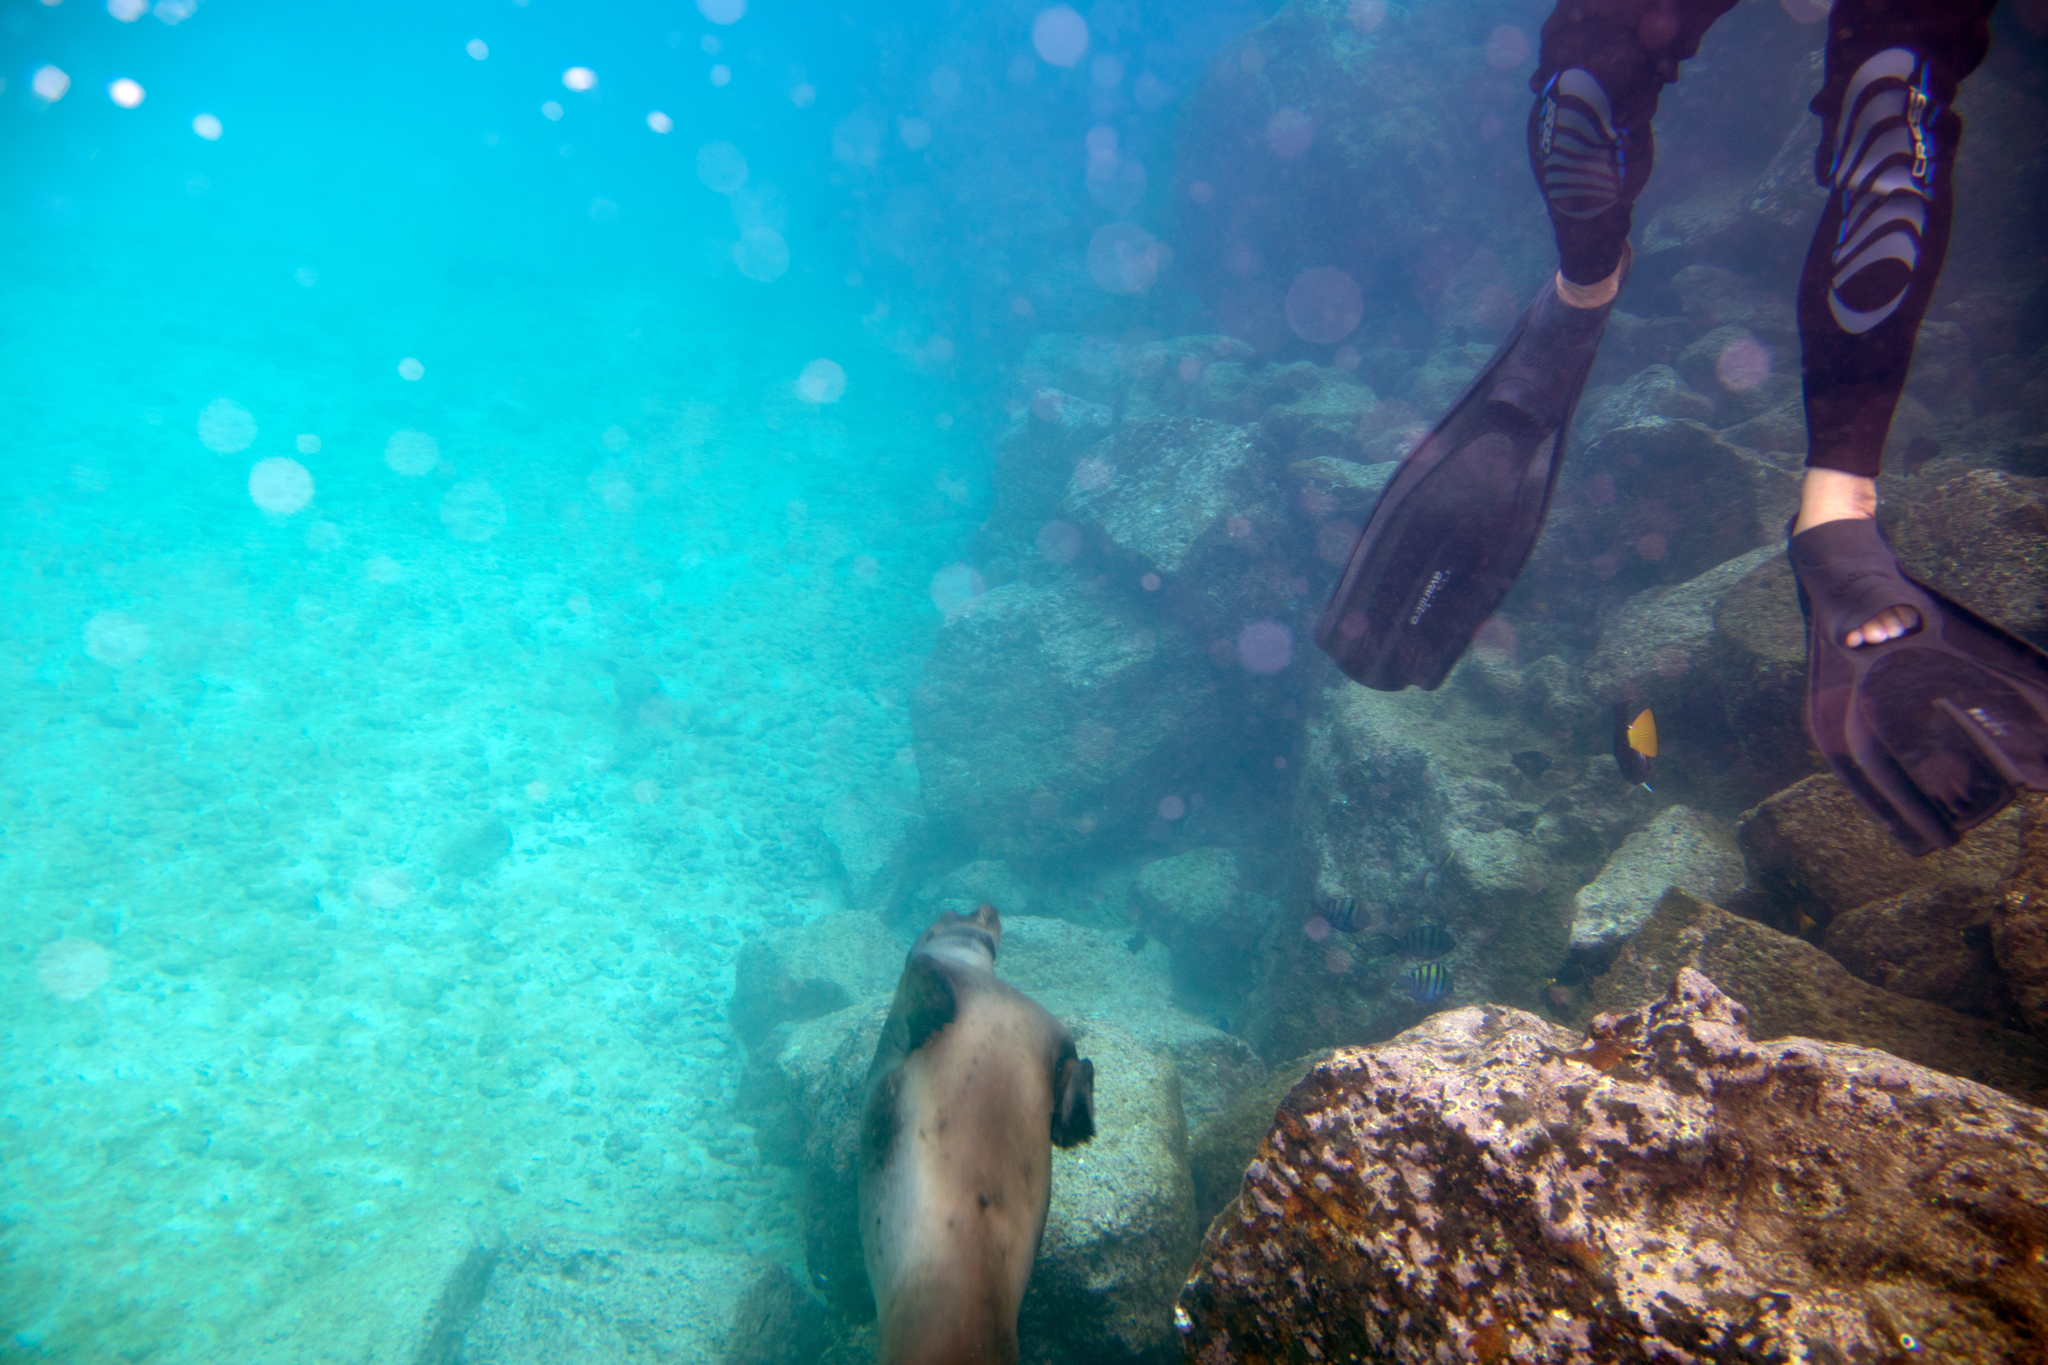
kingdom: Animalia
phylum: Chordata
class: Mammalia
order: Carnivora
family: Otariidae
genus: Zalophus
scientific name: Zalophus wollebaeki
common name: Galapagos sea lion
